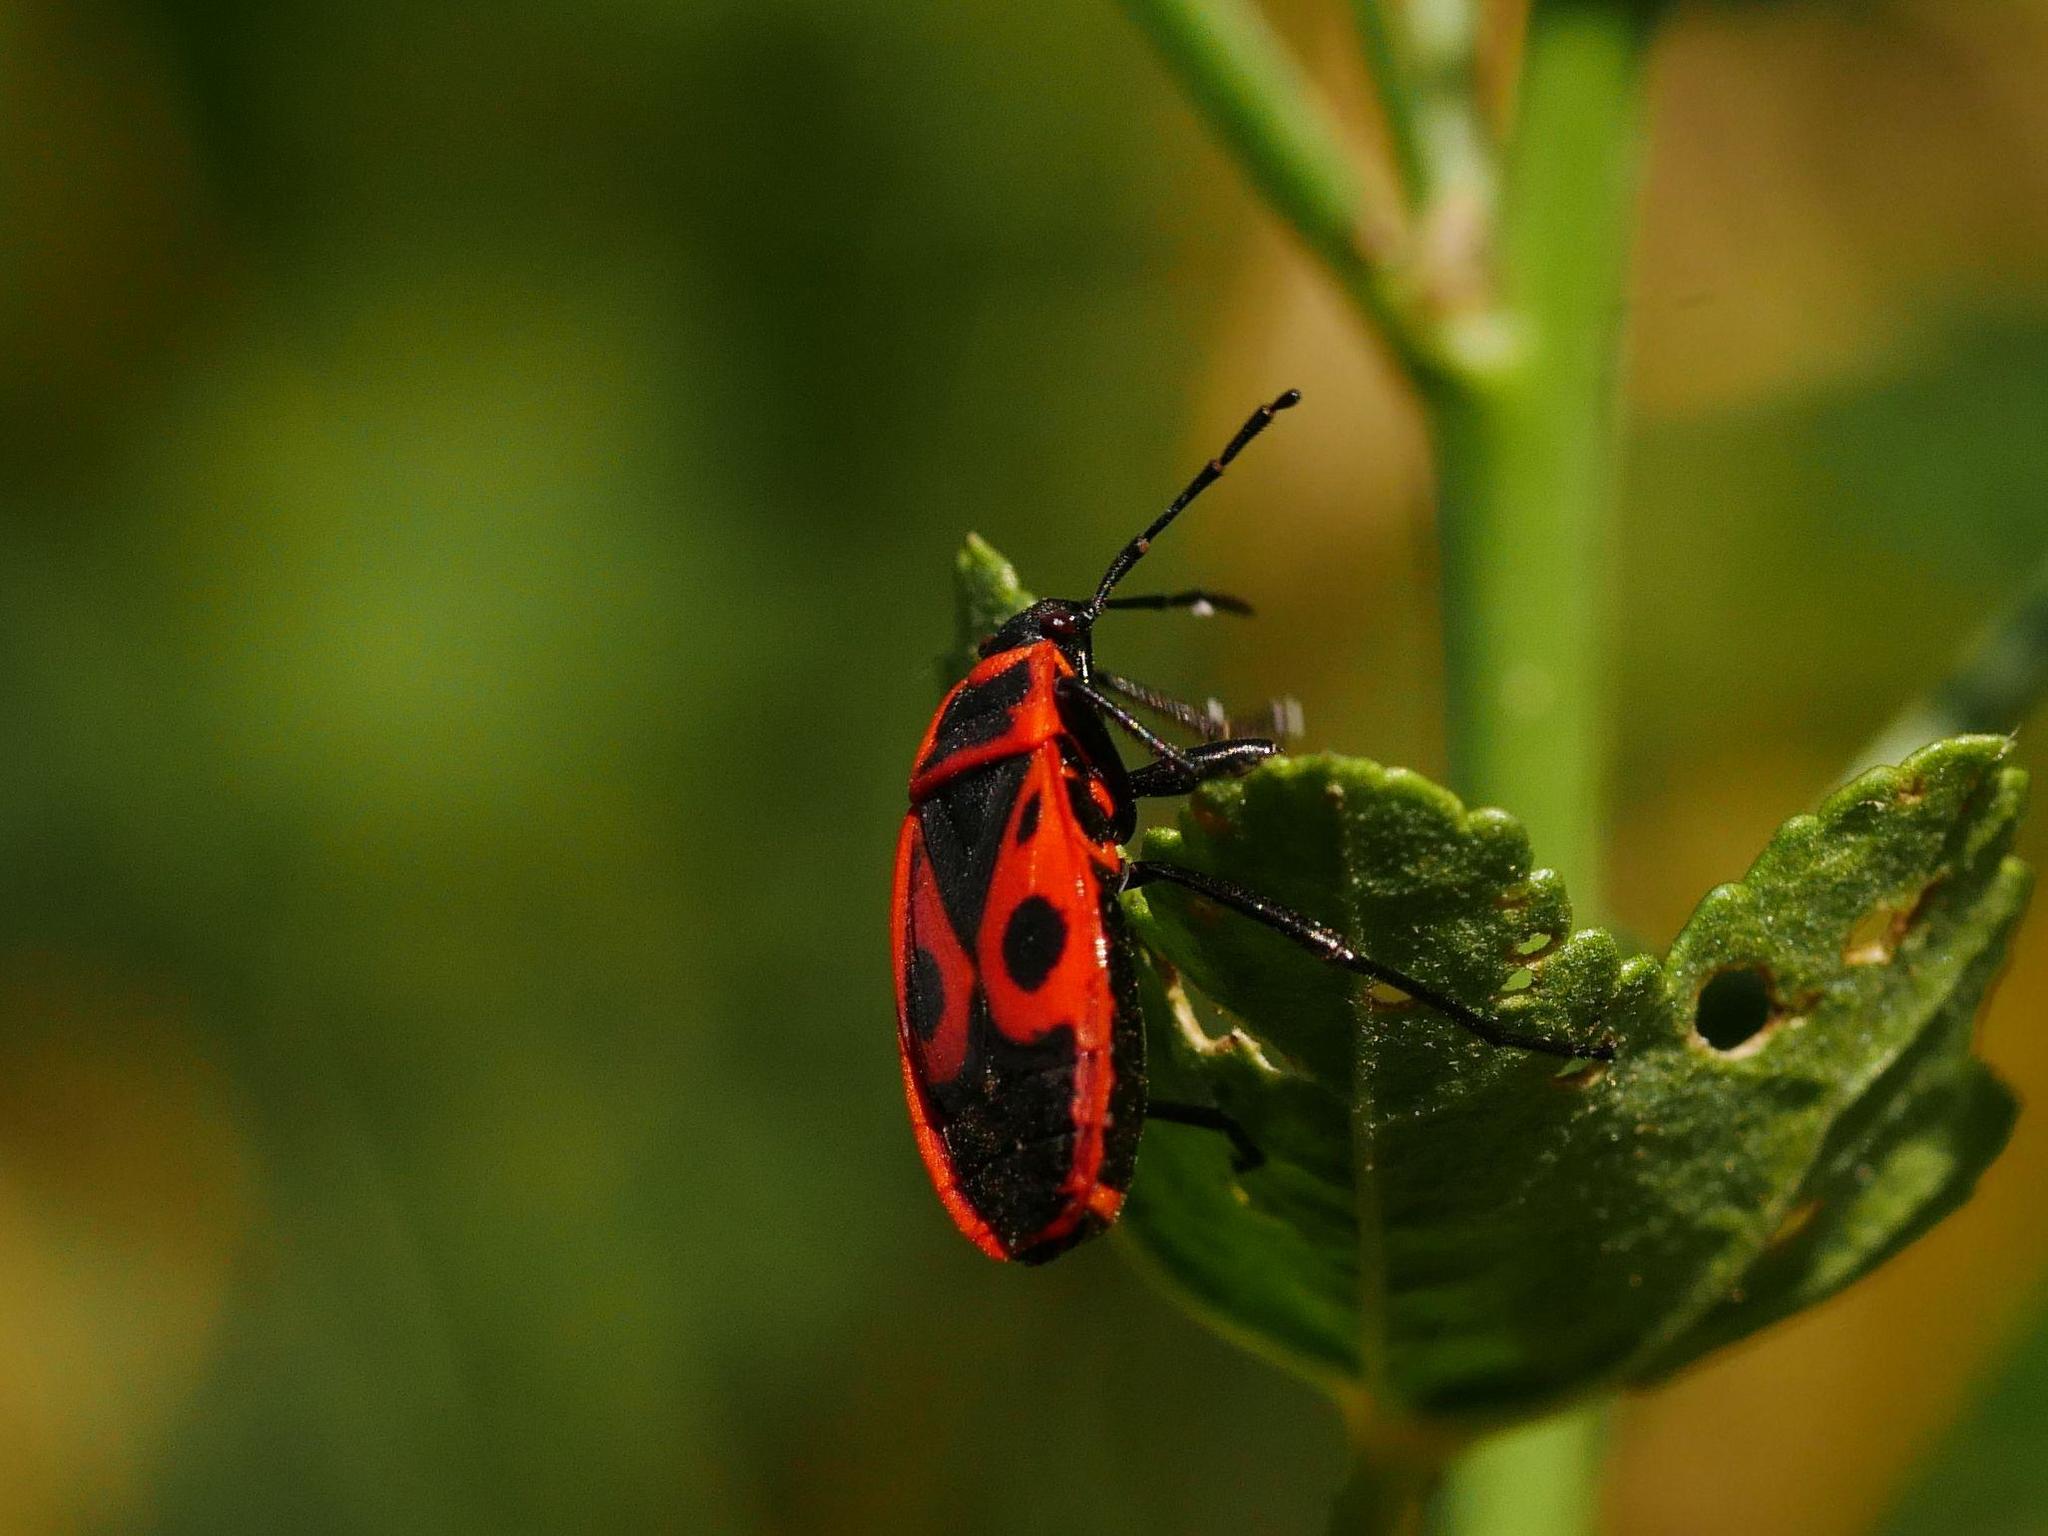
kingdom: Animalia
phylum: Arthropoda
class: Insecta
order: Hemiptera
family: Pyrrhocoridae
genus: Pyrrhocoris
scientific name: Pyrrhocoris apterus
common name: Firebug
